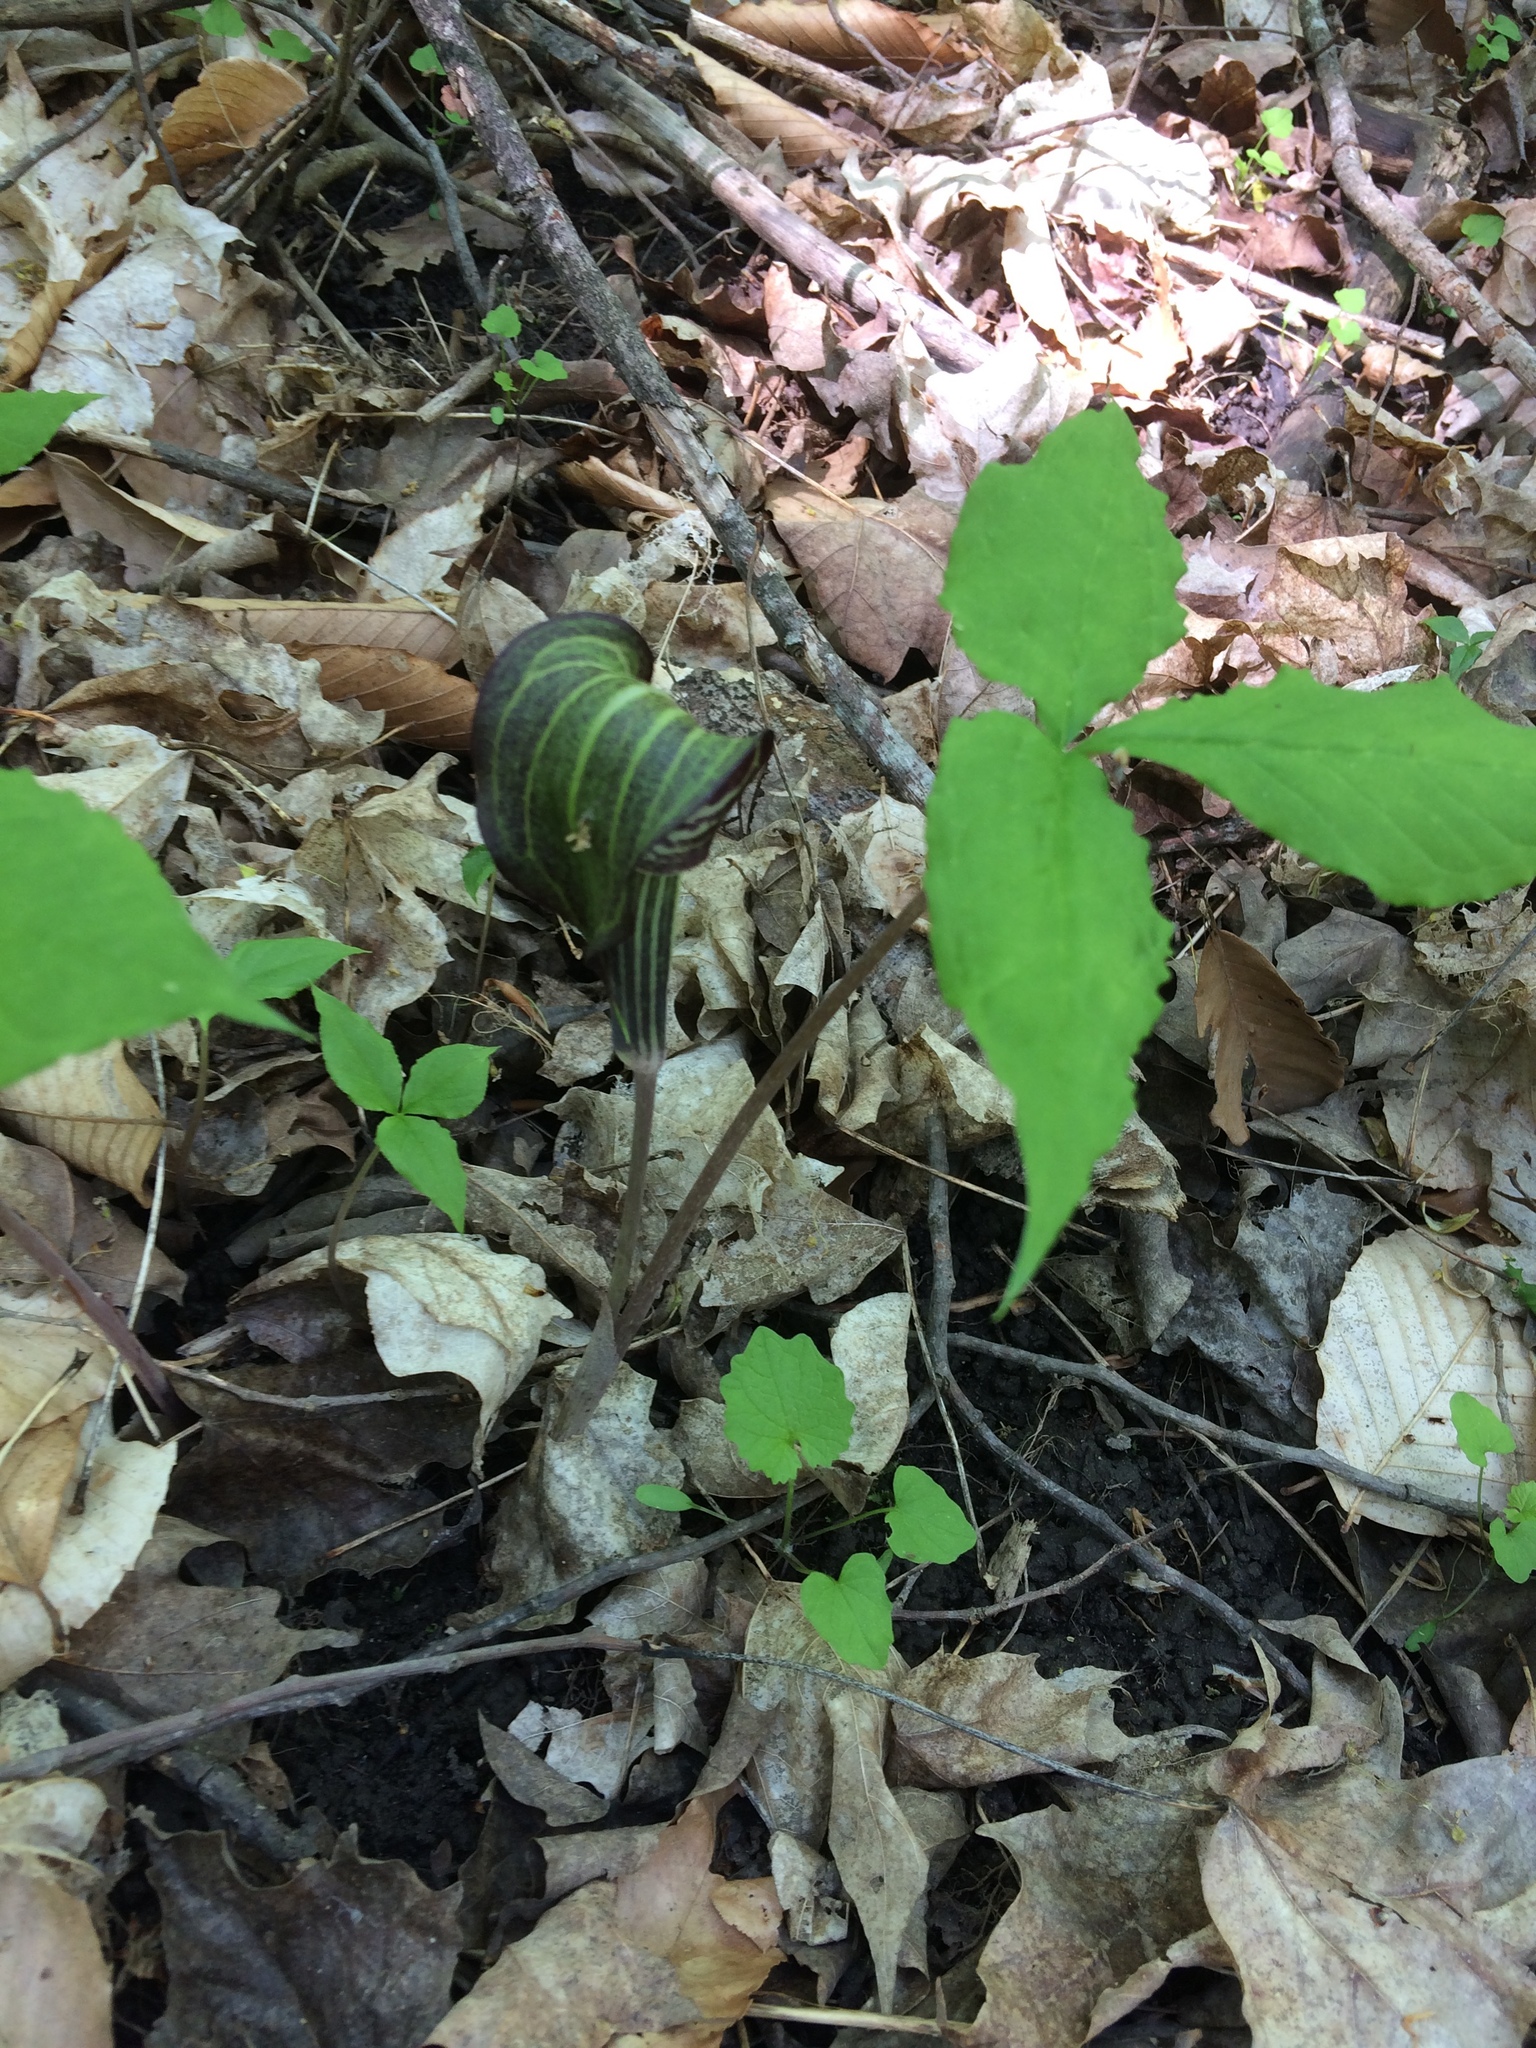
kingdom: Plantae
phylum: Tracheophyta
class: Liliopsida
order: Alismatales
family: Araceae
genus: Arisaema
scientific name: Arisaema triphyllum
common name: Jack-in-the-pulpit
